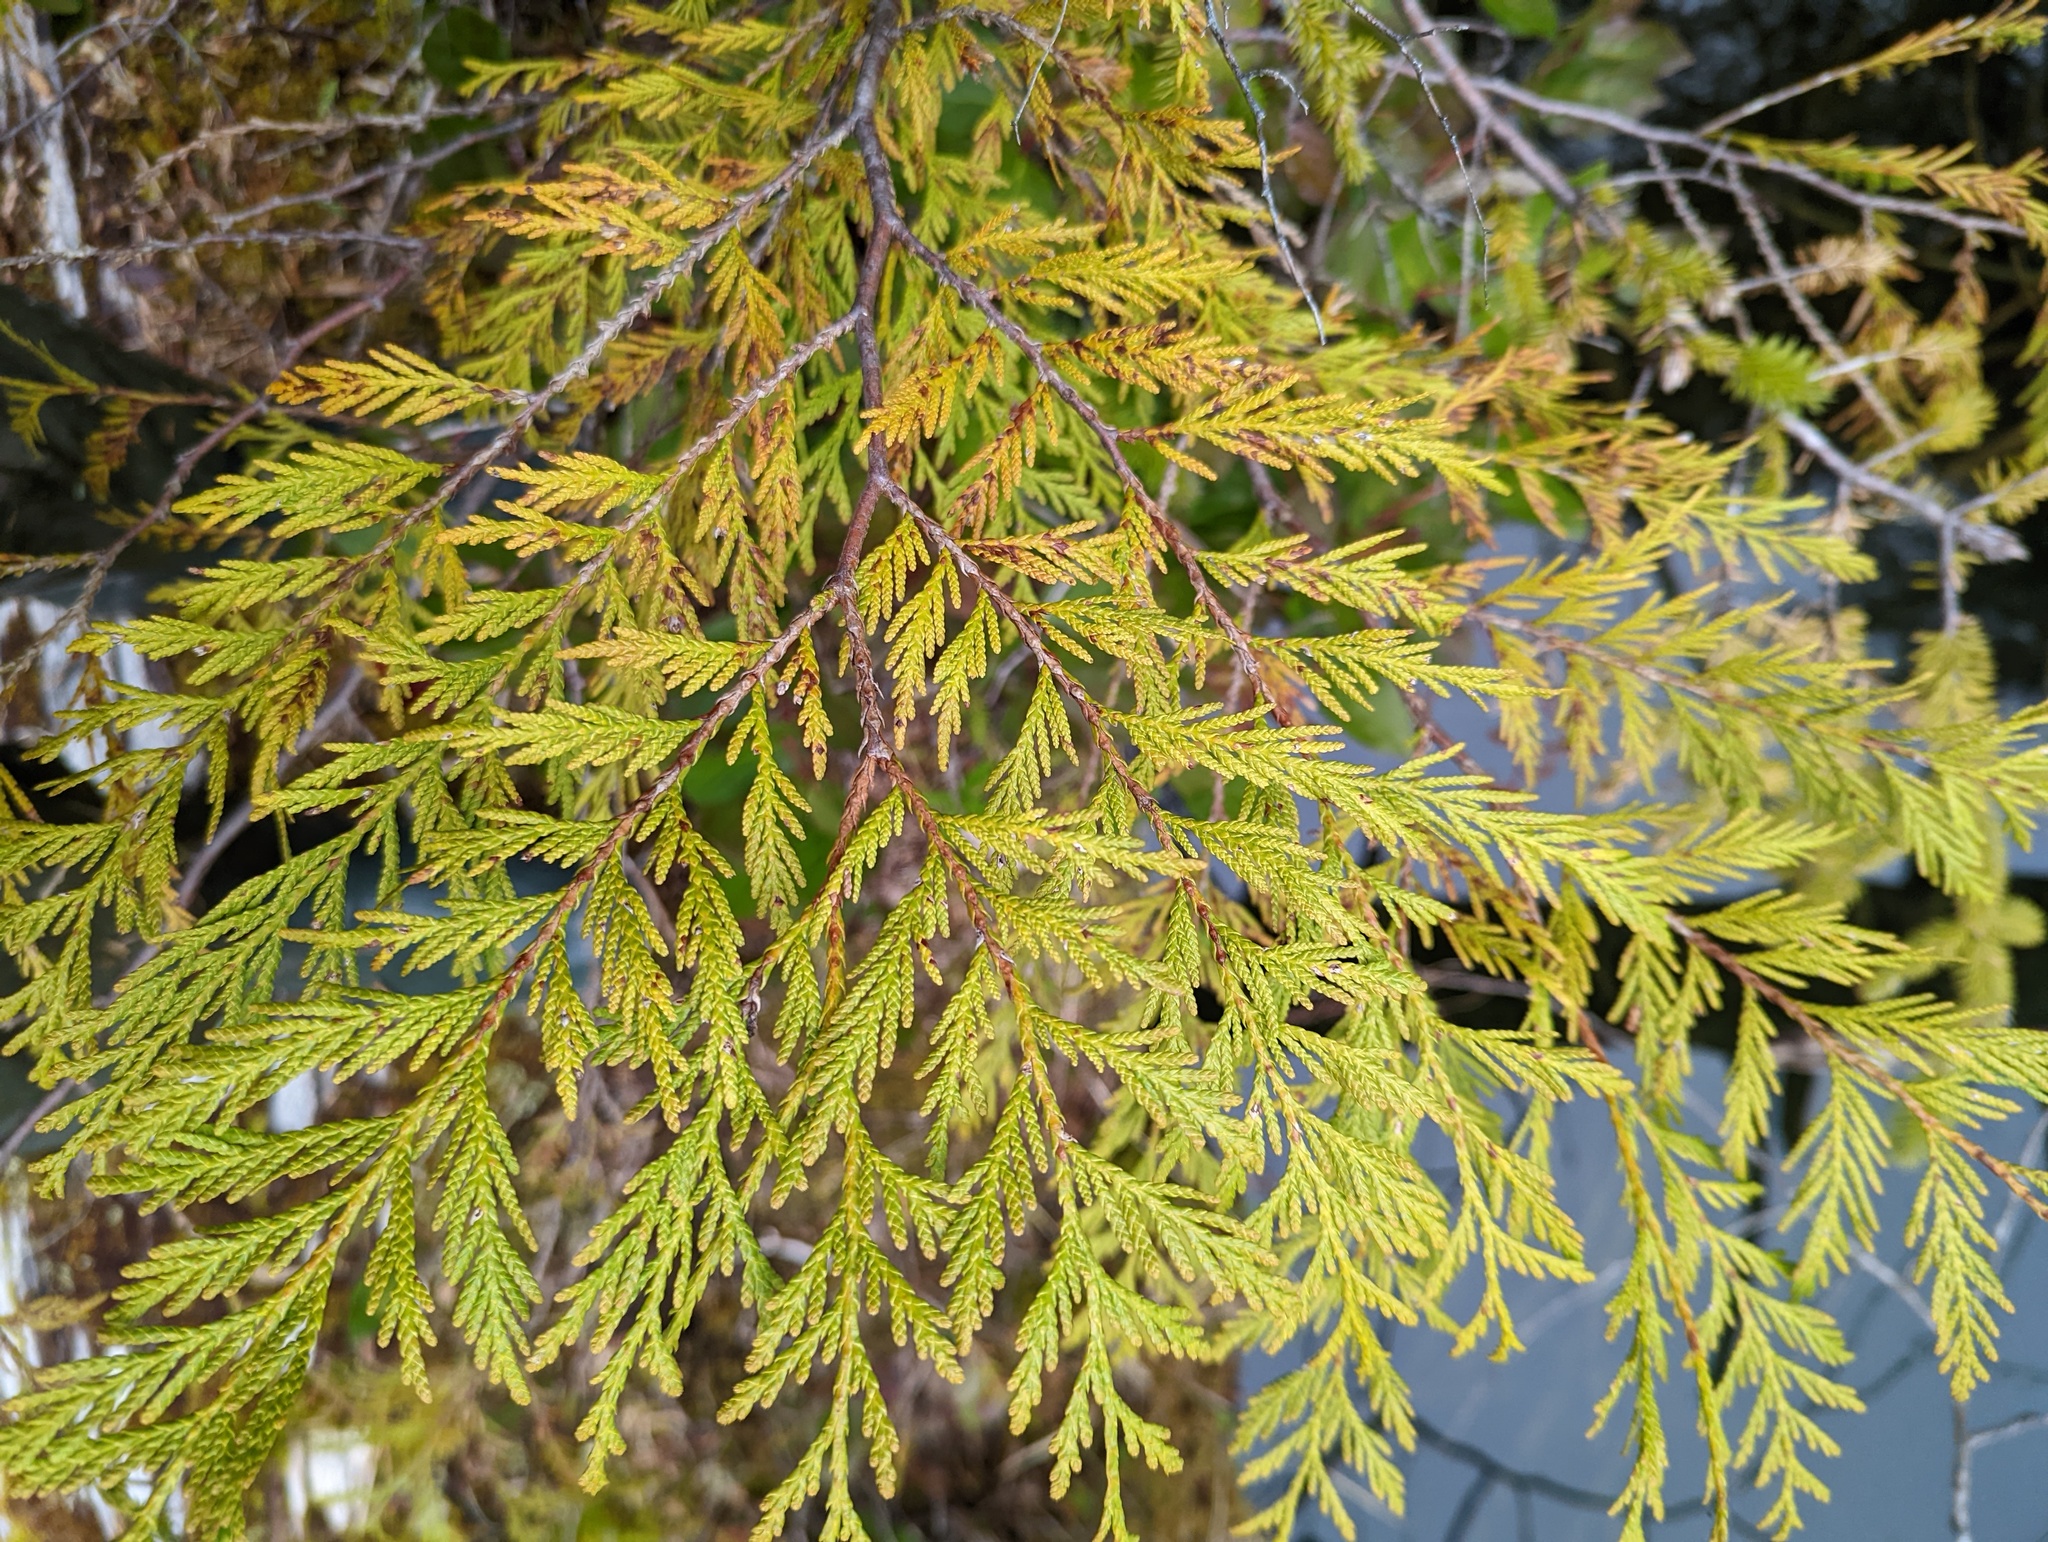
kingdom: Plantae
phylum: Tracheophyta
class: Pinopsida
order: Pinales
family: Cupressaceae
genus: Thuja
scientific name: Thuja plicata
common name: Western red-cedar
